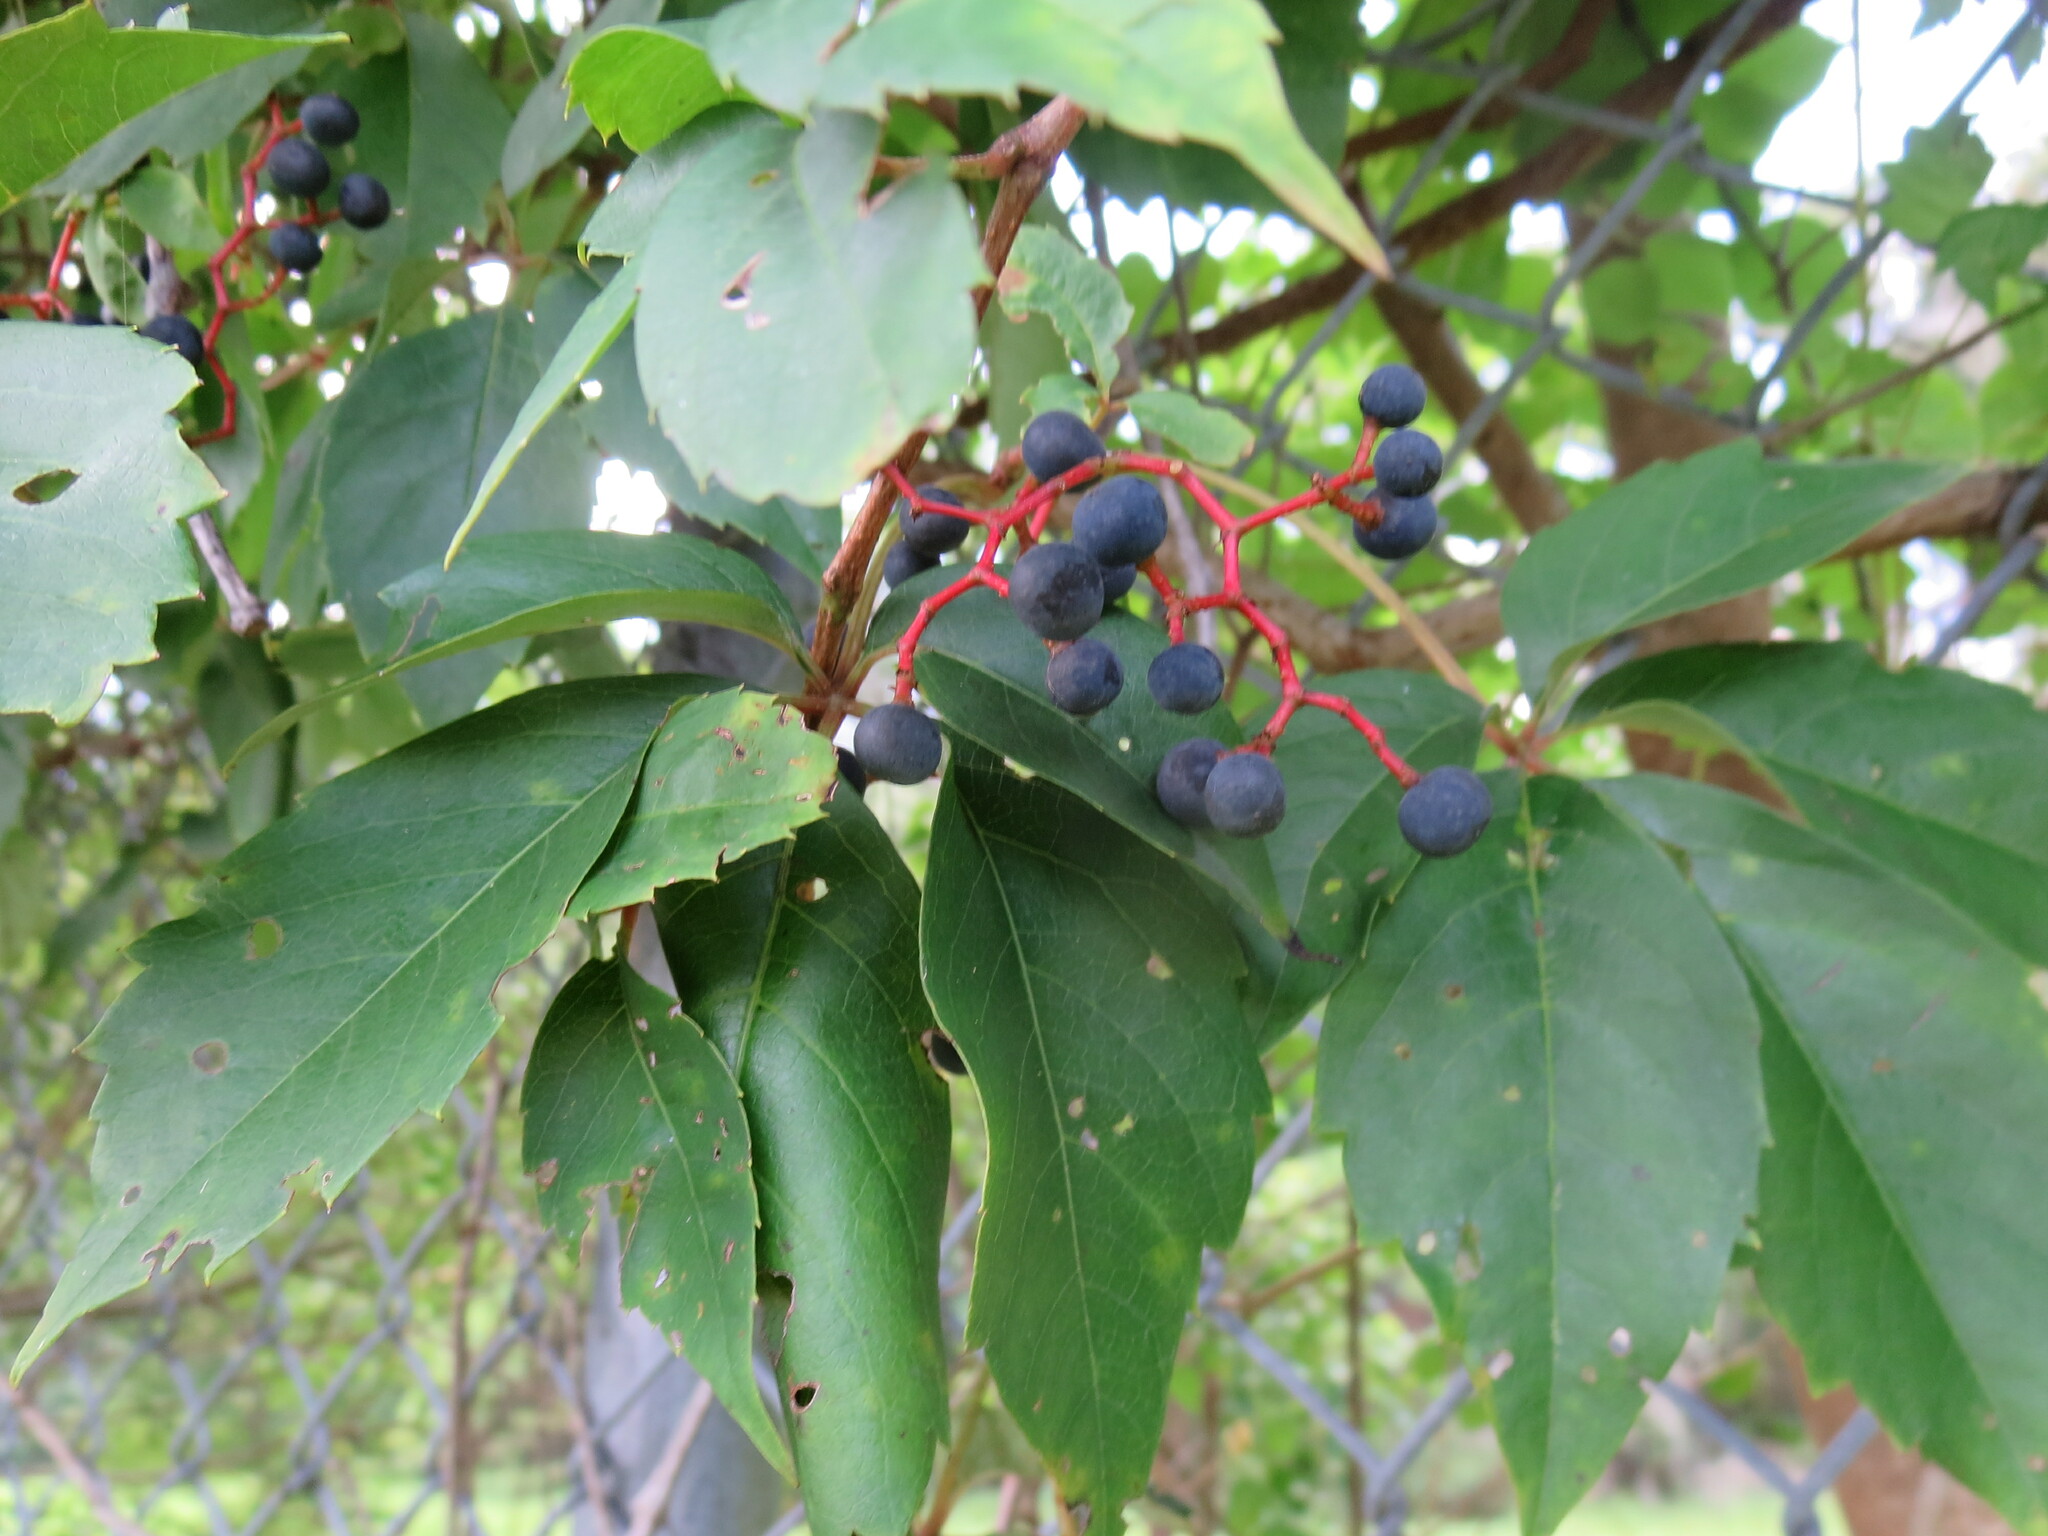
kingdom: Plantae
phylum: Tracheophyta
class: Magnoliopsida
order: Vitales
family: Vitaceae
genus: Parthenocissus
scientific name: Parthenocissus quinquefolia
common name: Virginia-creeper
